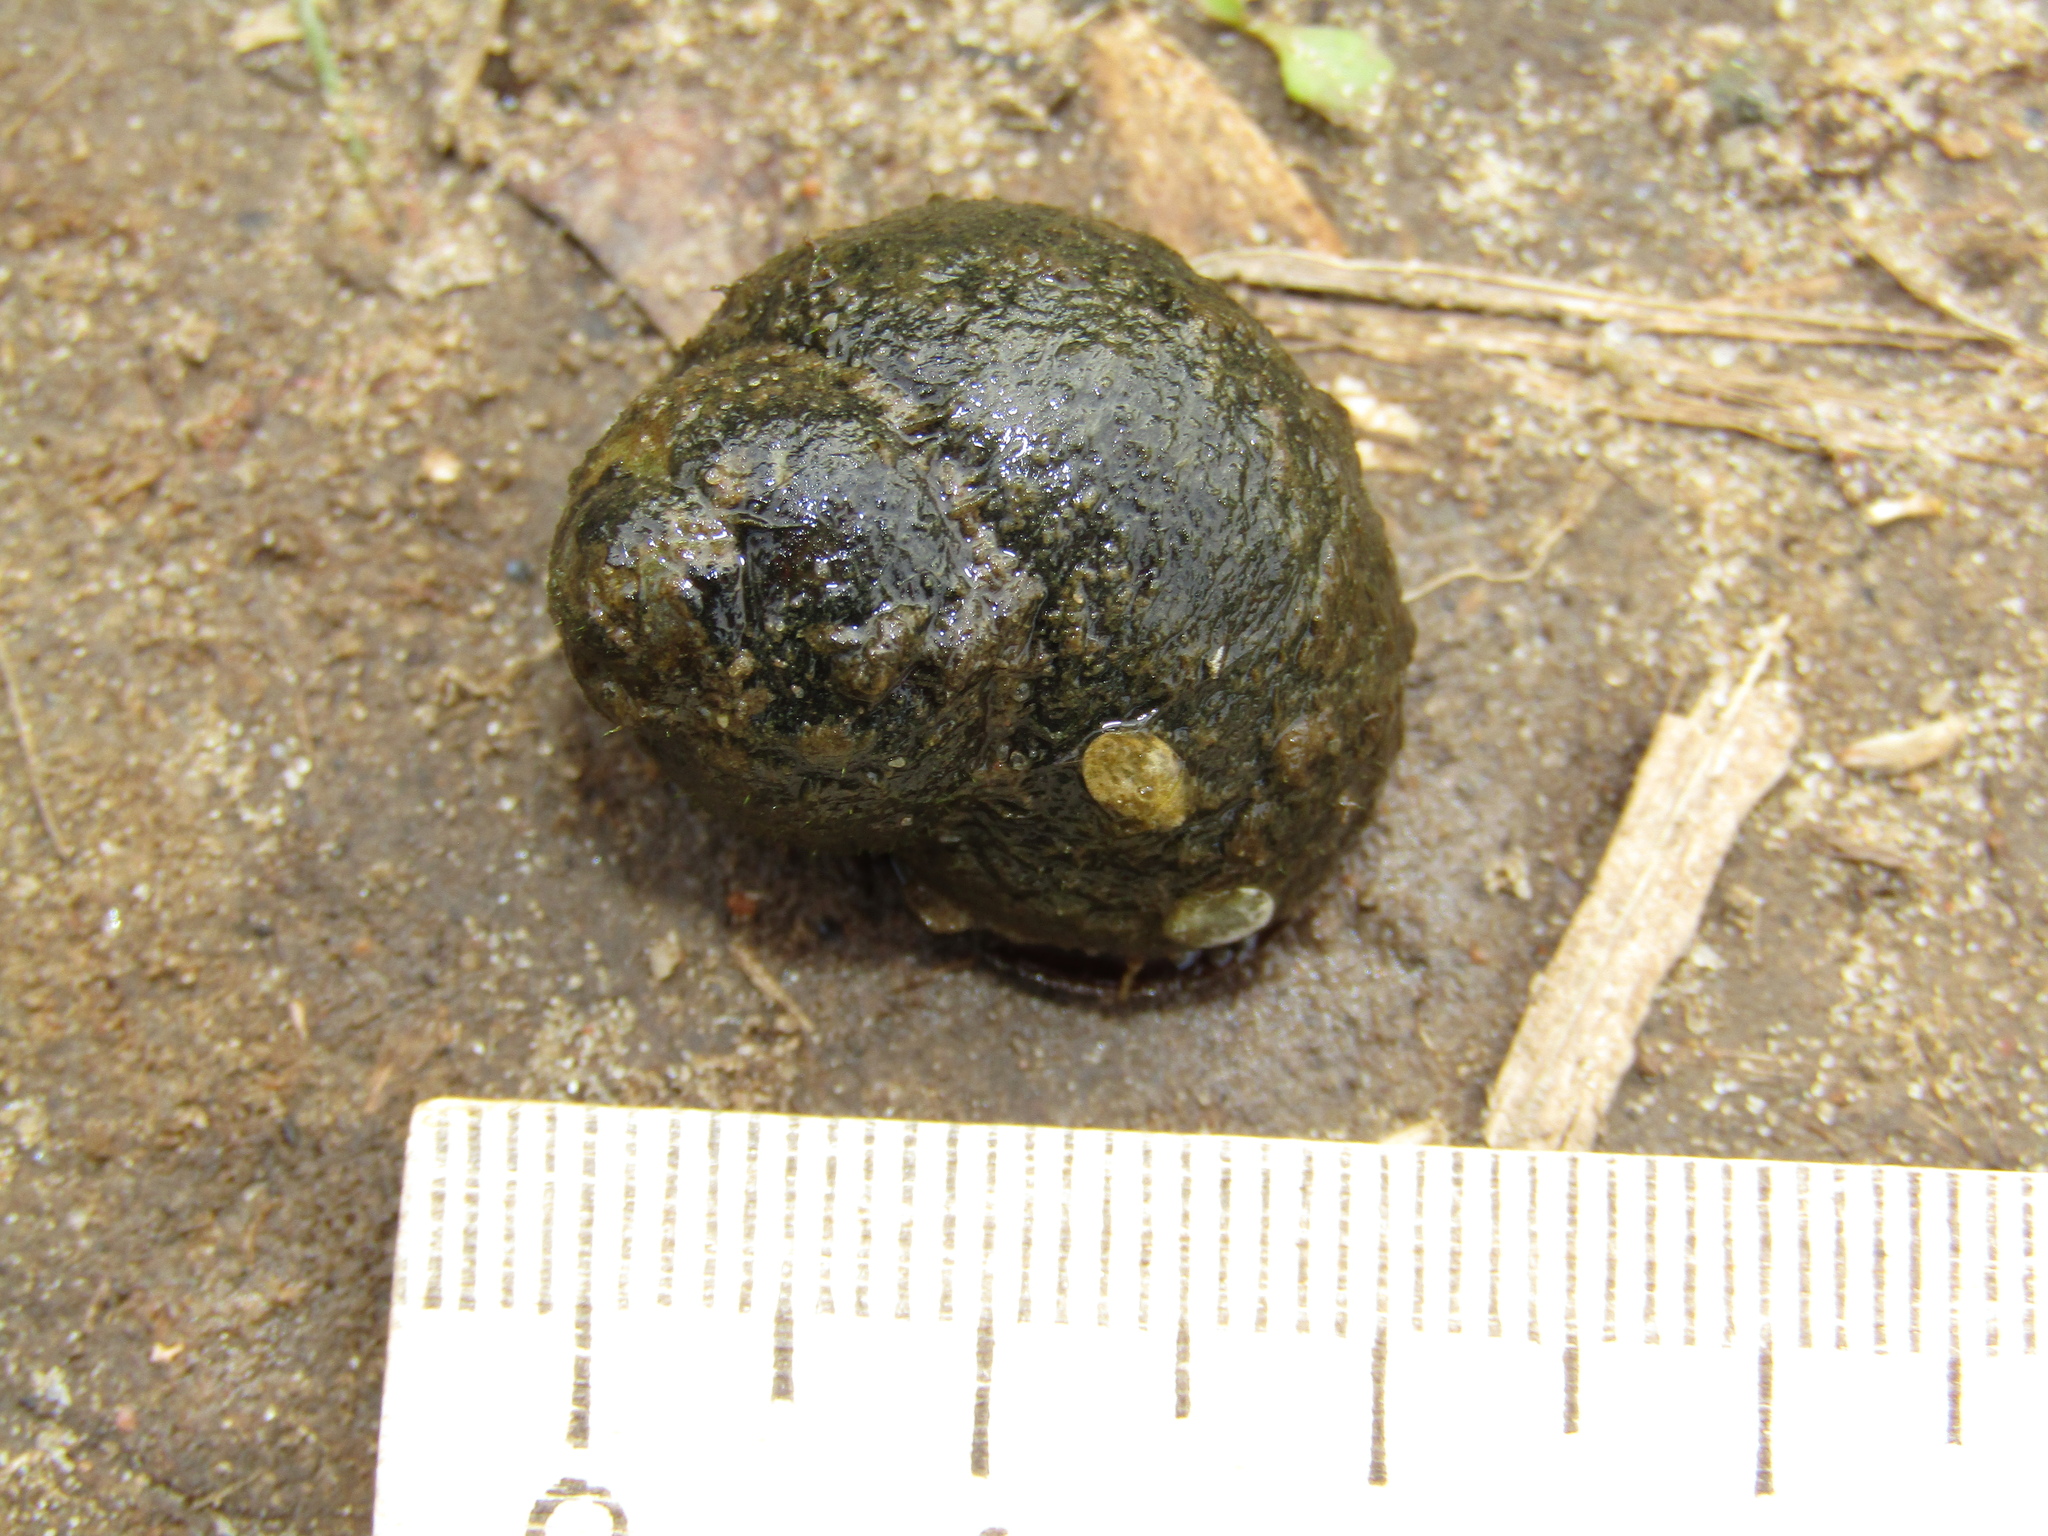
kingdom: Animalia
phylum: Mollusca
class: Gastropoda
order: Architaenioglossa
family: Viviparidae
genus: Viviparus
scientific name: Viviparus viviparus
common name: River snail
